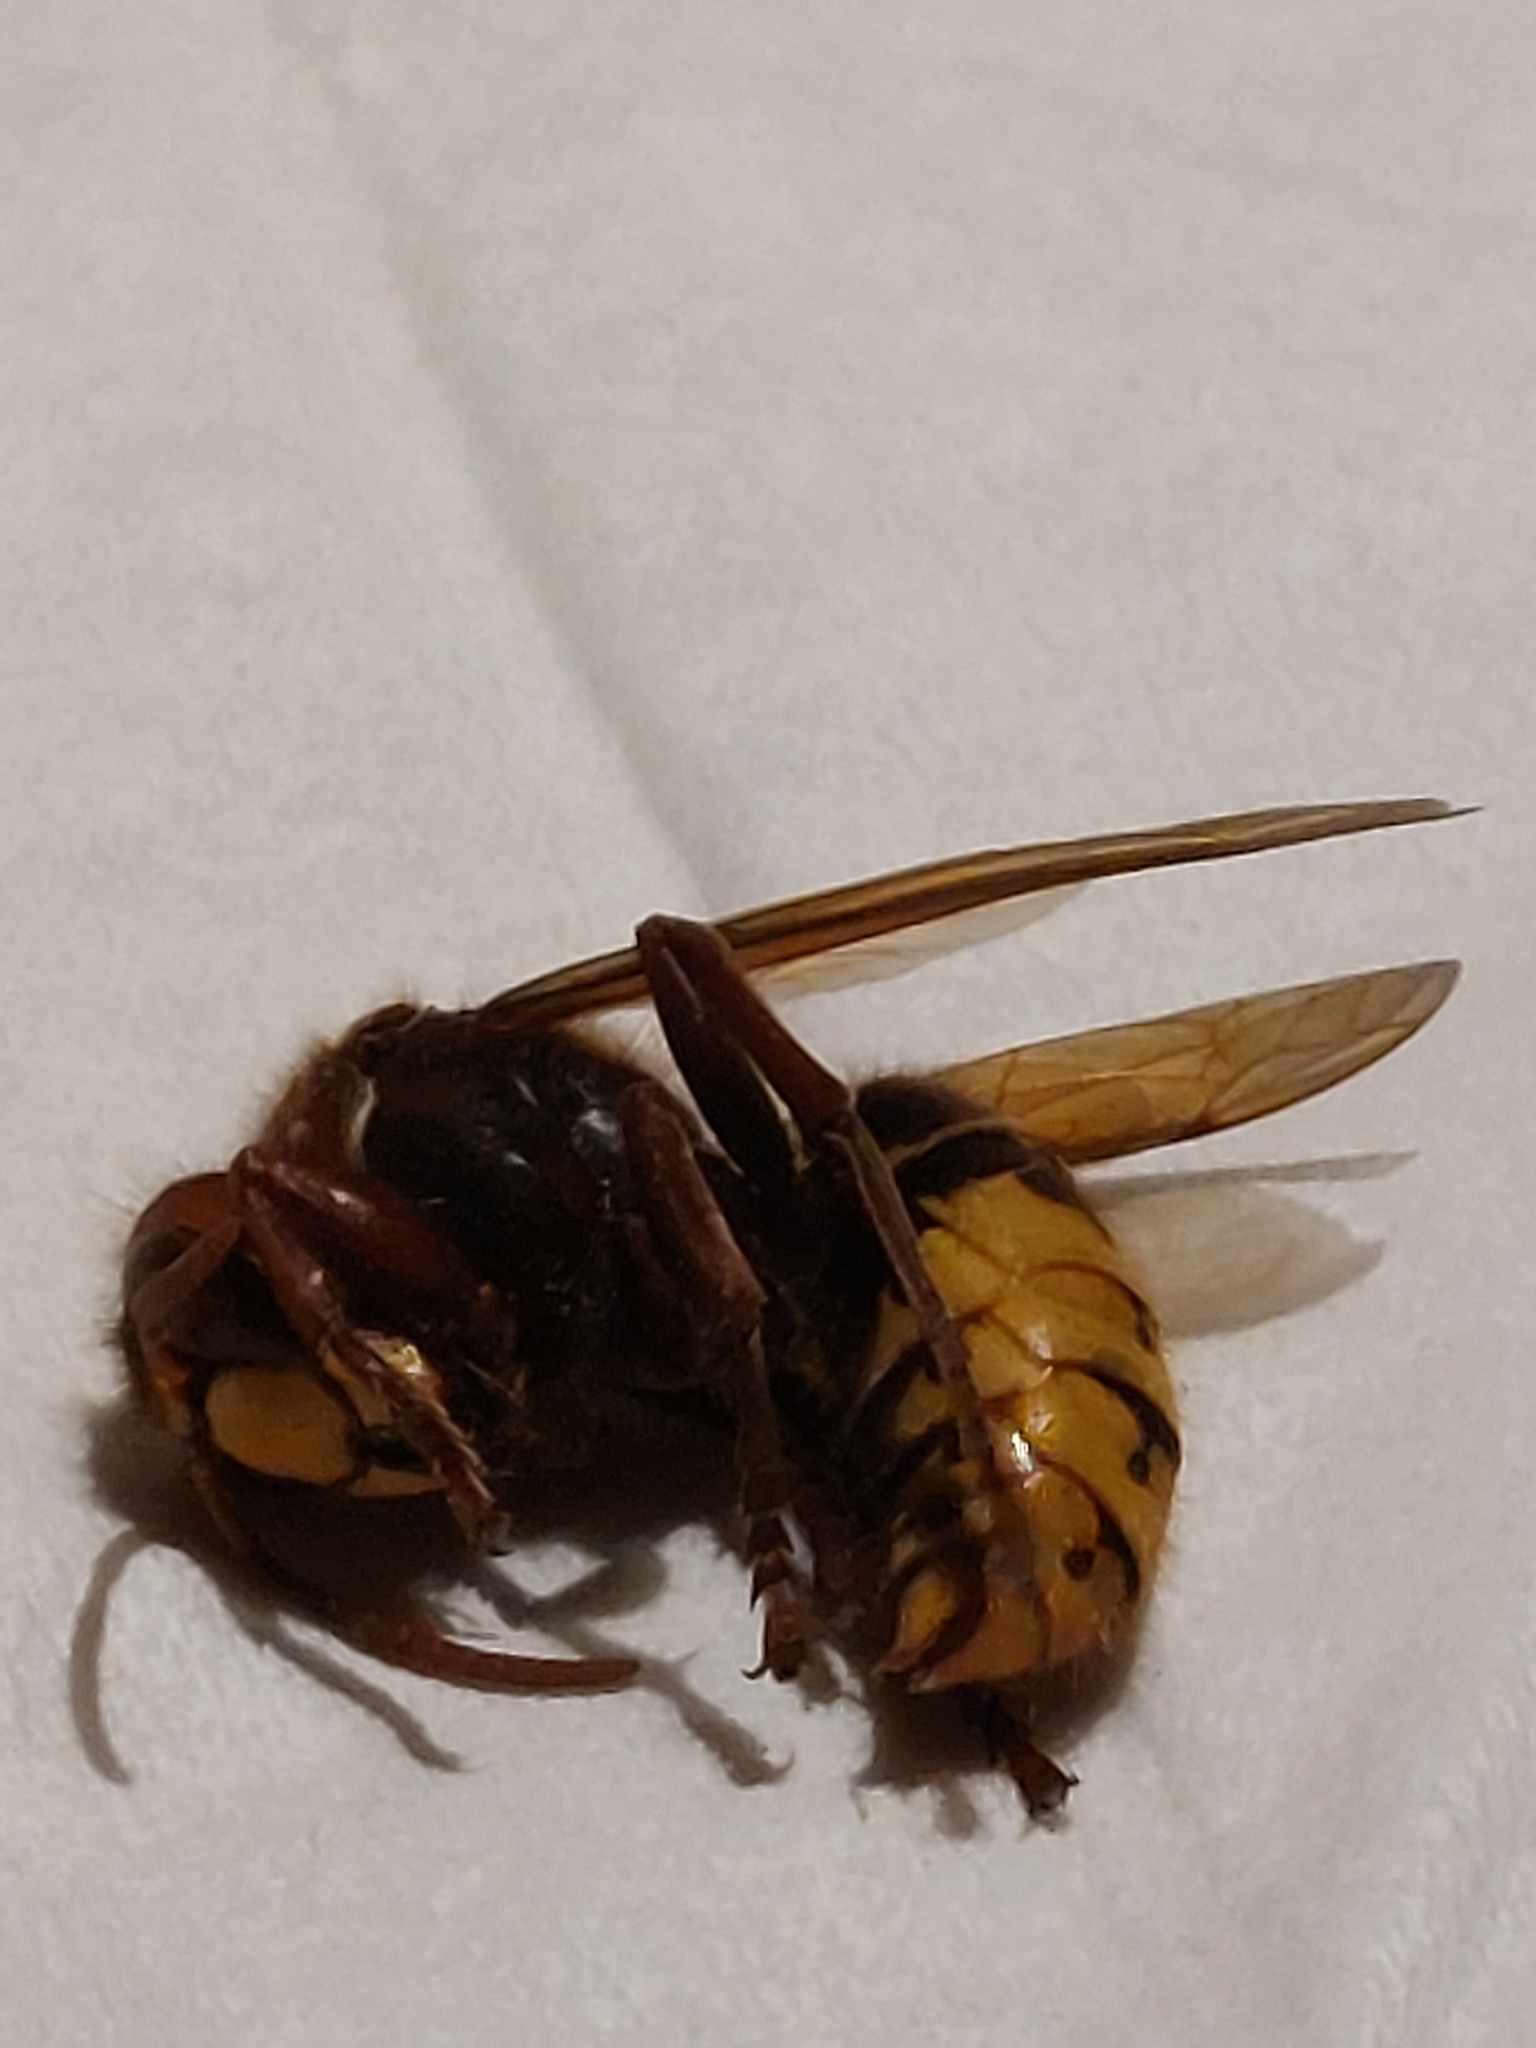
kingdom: Animalia
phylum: Arthropoda
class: Insecta
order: Hymenoptera
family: Vespidae
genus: Vespa
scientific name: Vespa crabro
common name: Hornet
